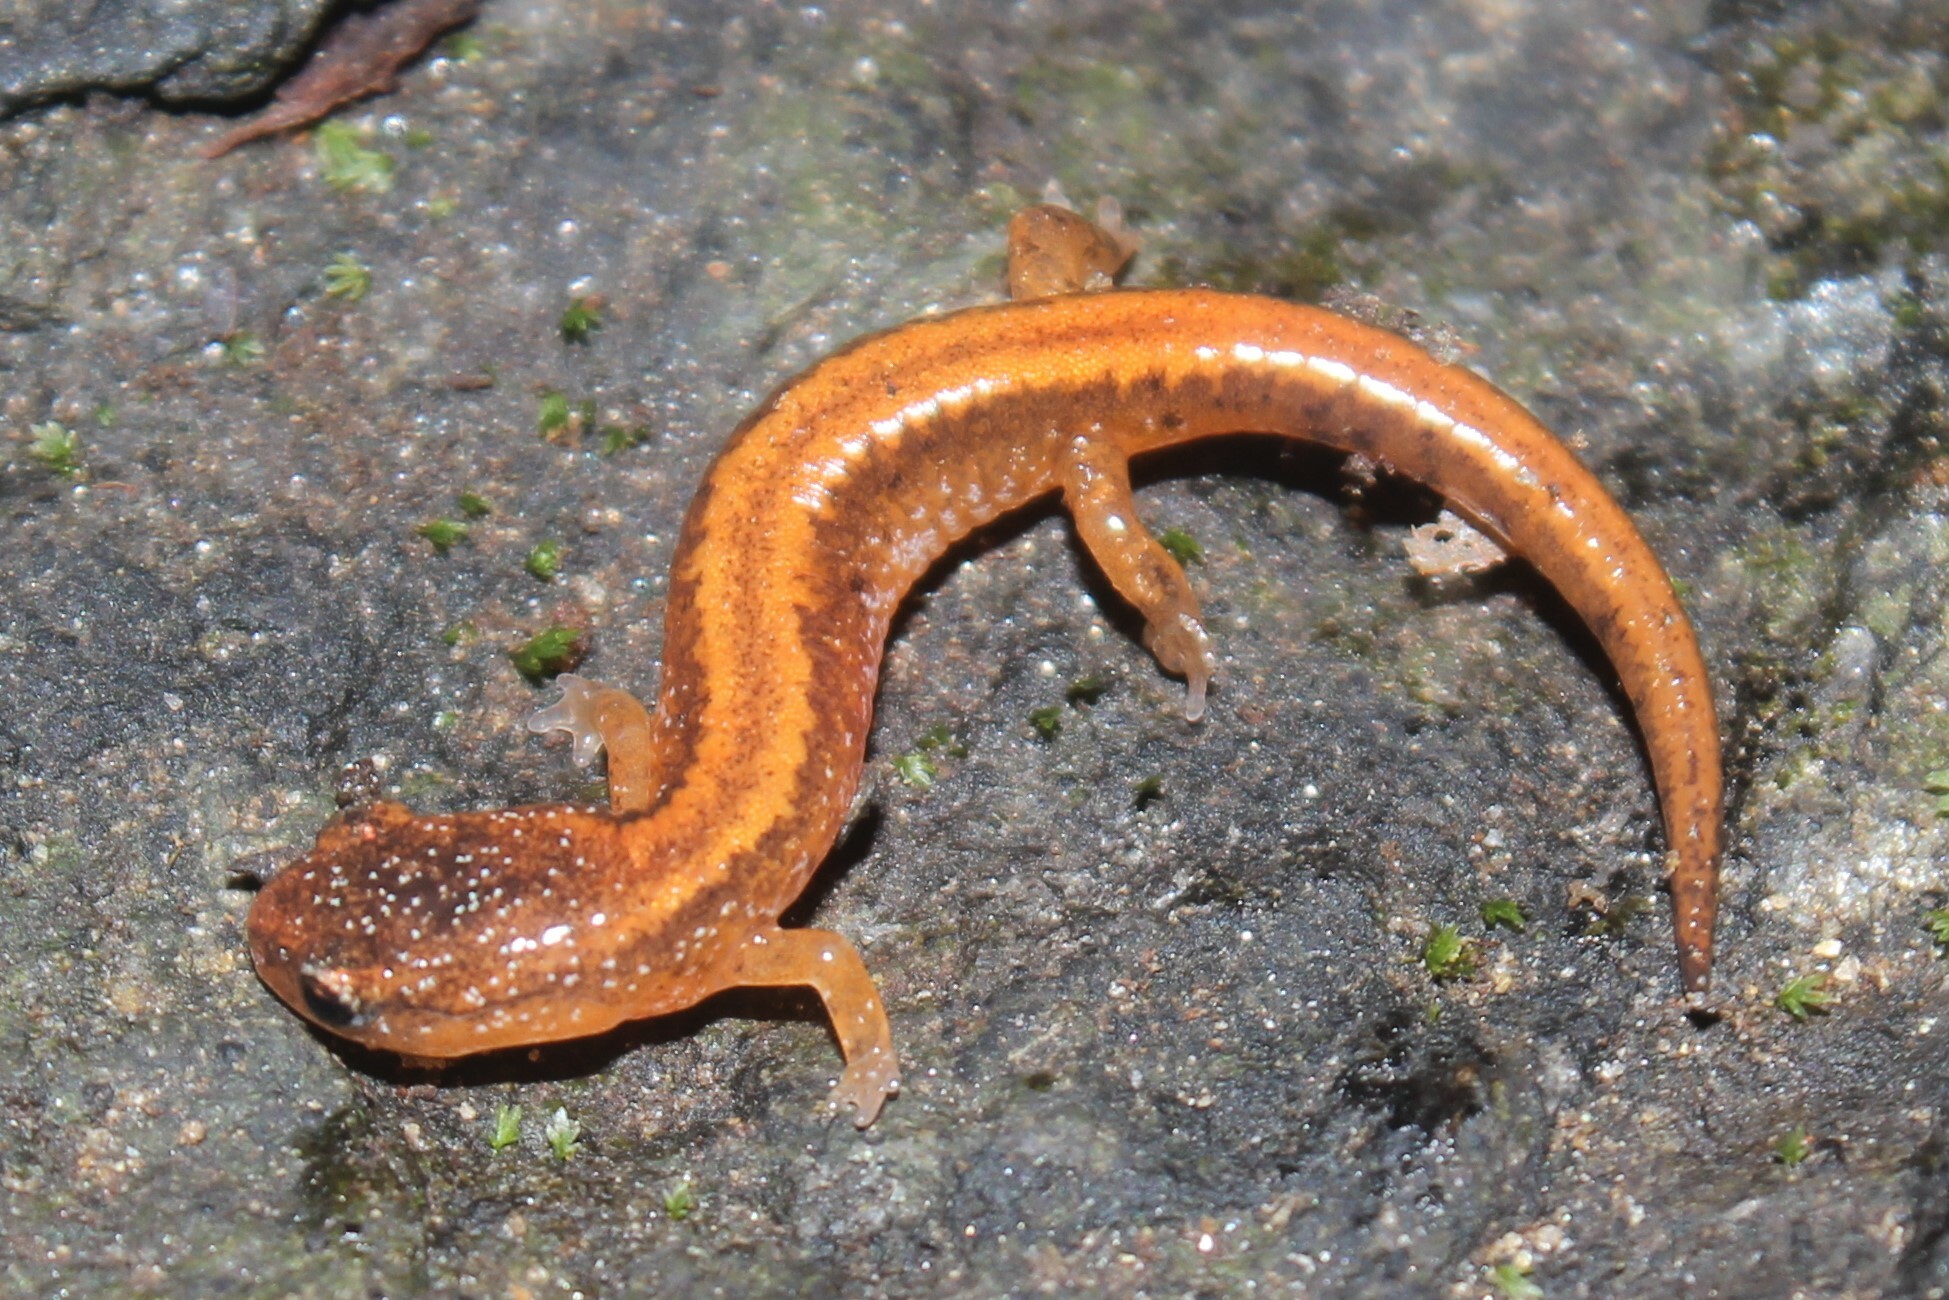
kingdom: Animalia
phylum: Chordata
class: Amphibia
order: Caudata
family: Plethodontidae
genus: Plethodon
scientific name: Plethodon cinereus
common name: Redback salamander
